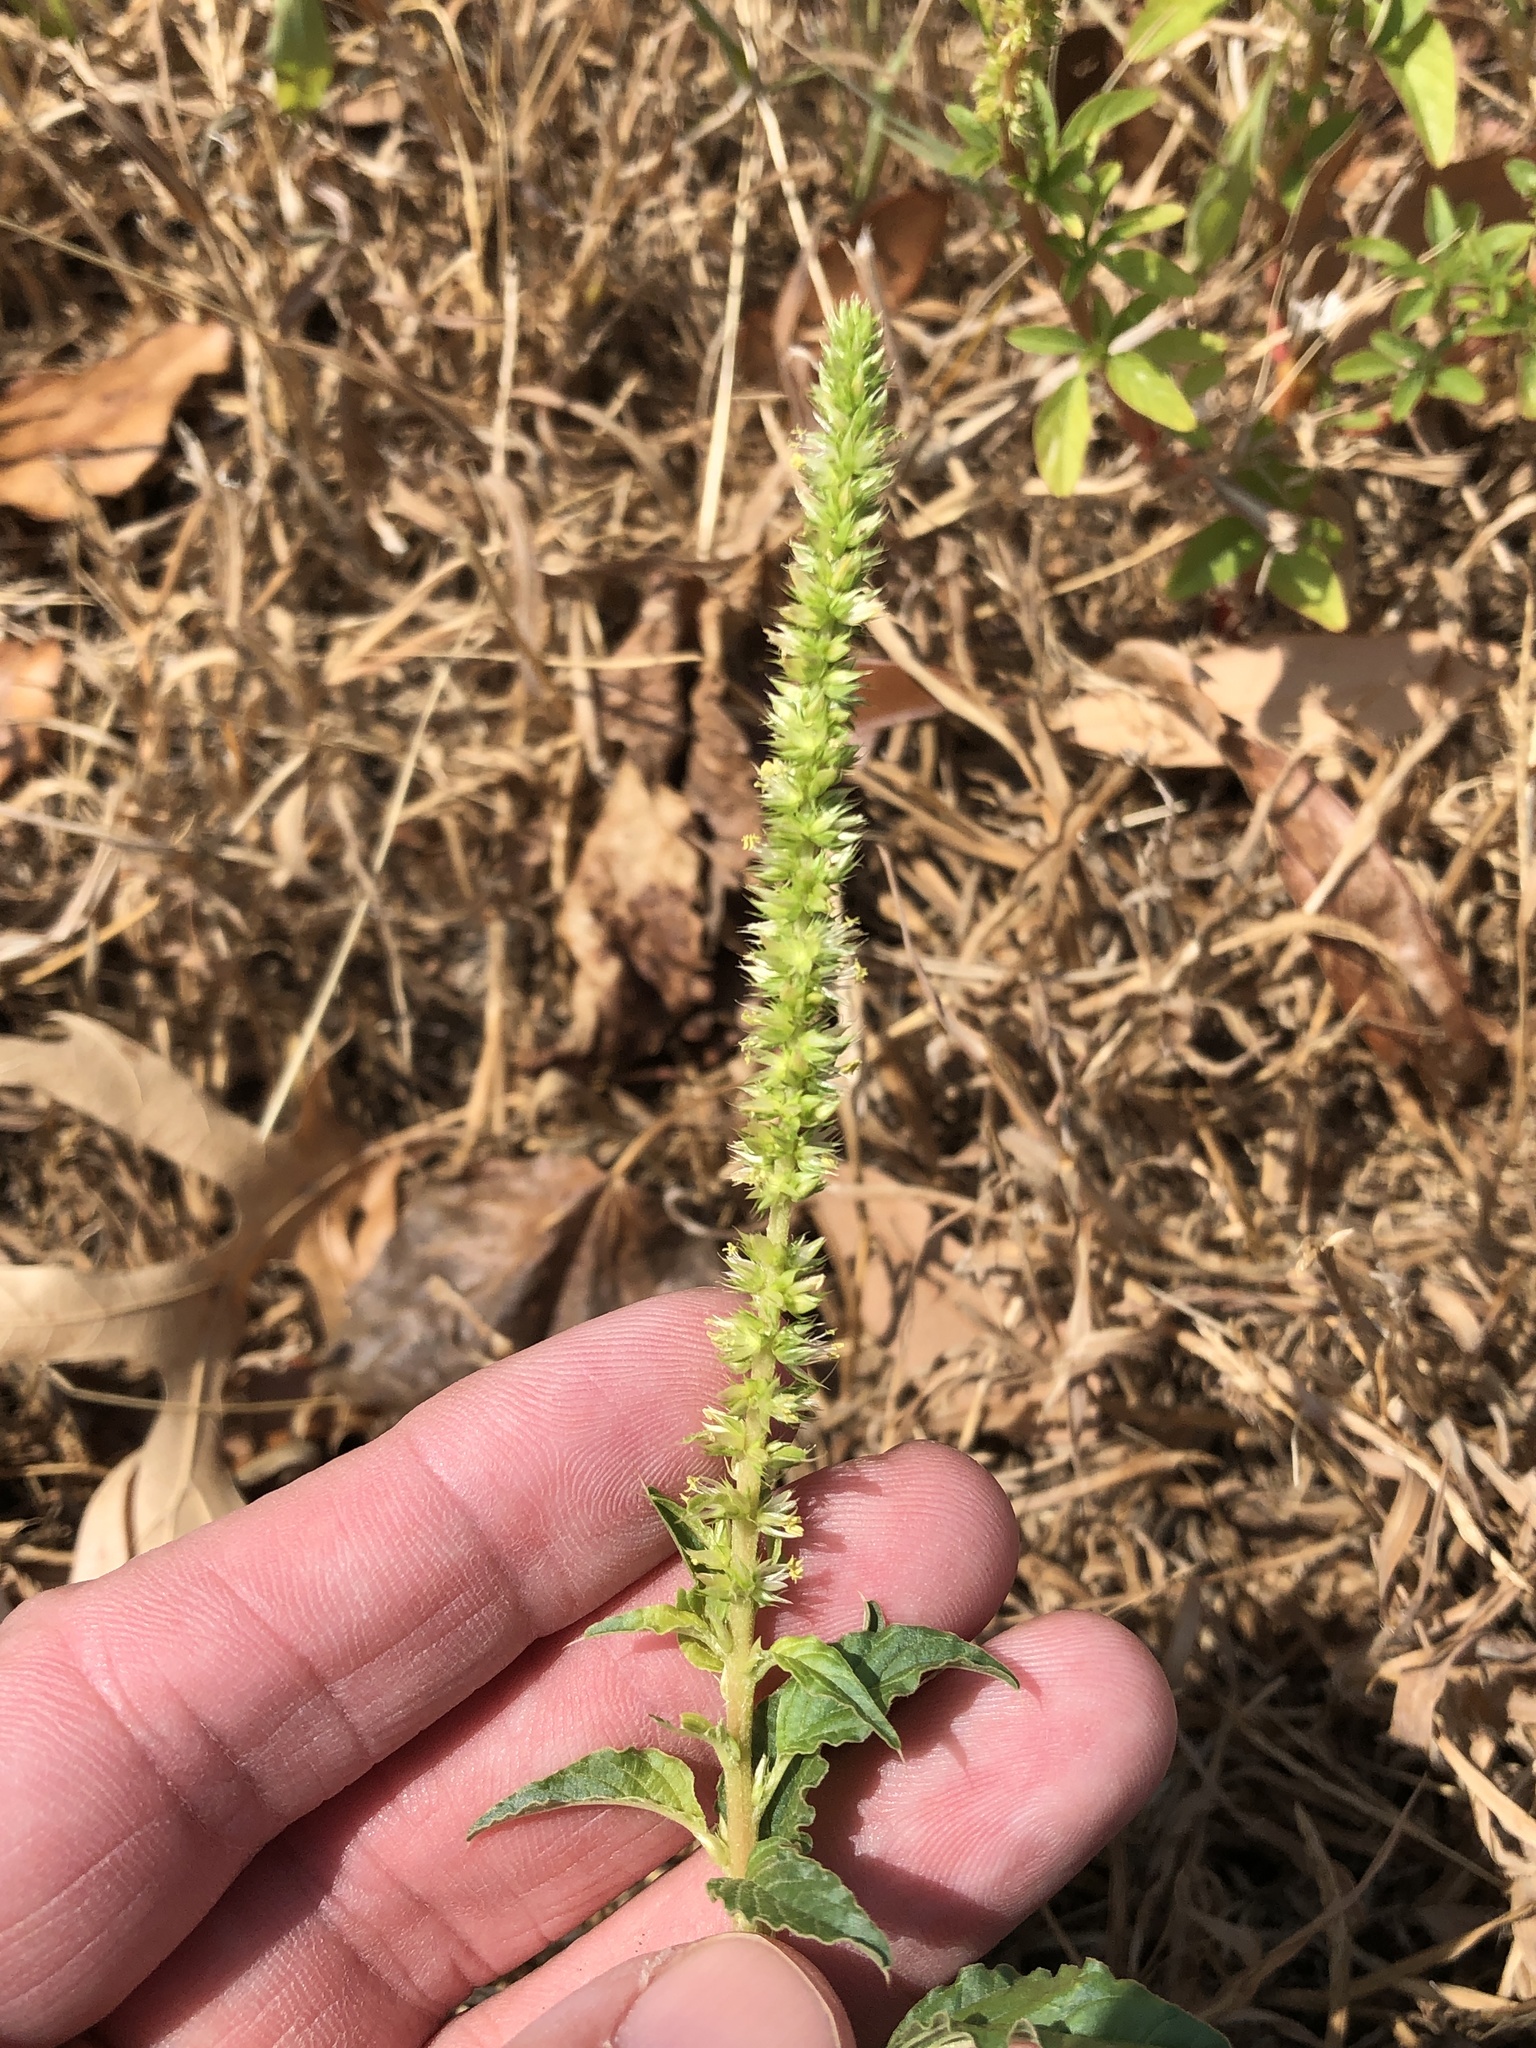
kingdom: Plantae
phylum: Tracheophyta
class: Magnoliopsida
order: Caryophyllales
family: Amaranthaceae
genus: Amaranthus
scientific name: Amaranthus palmeri
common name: Dioecious amaranth
